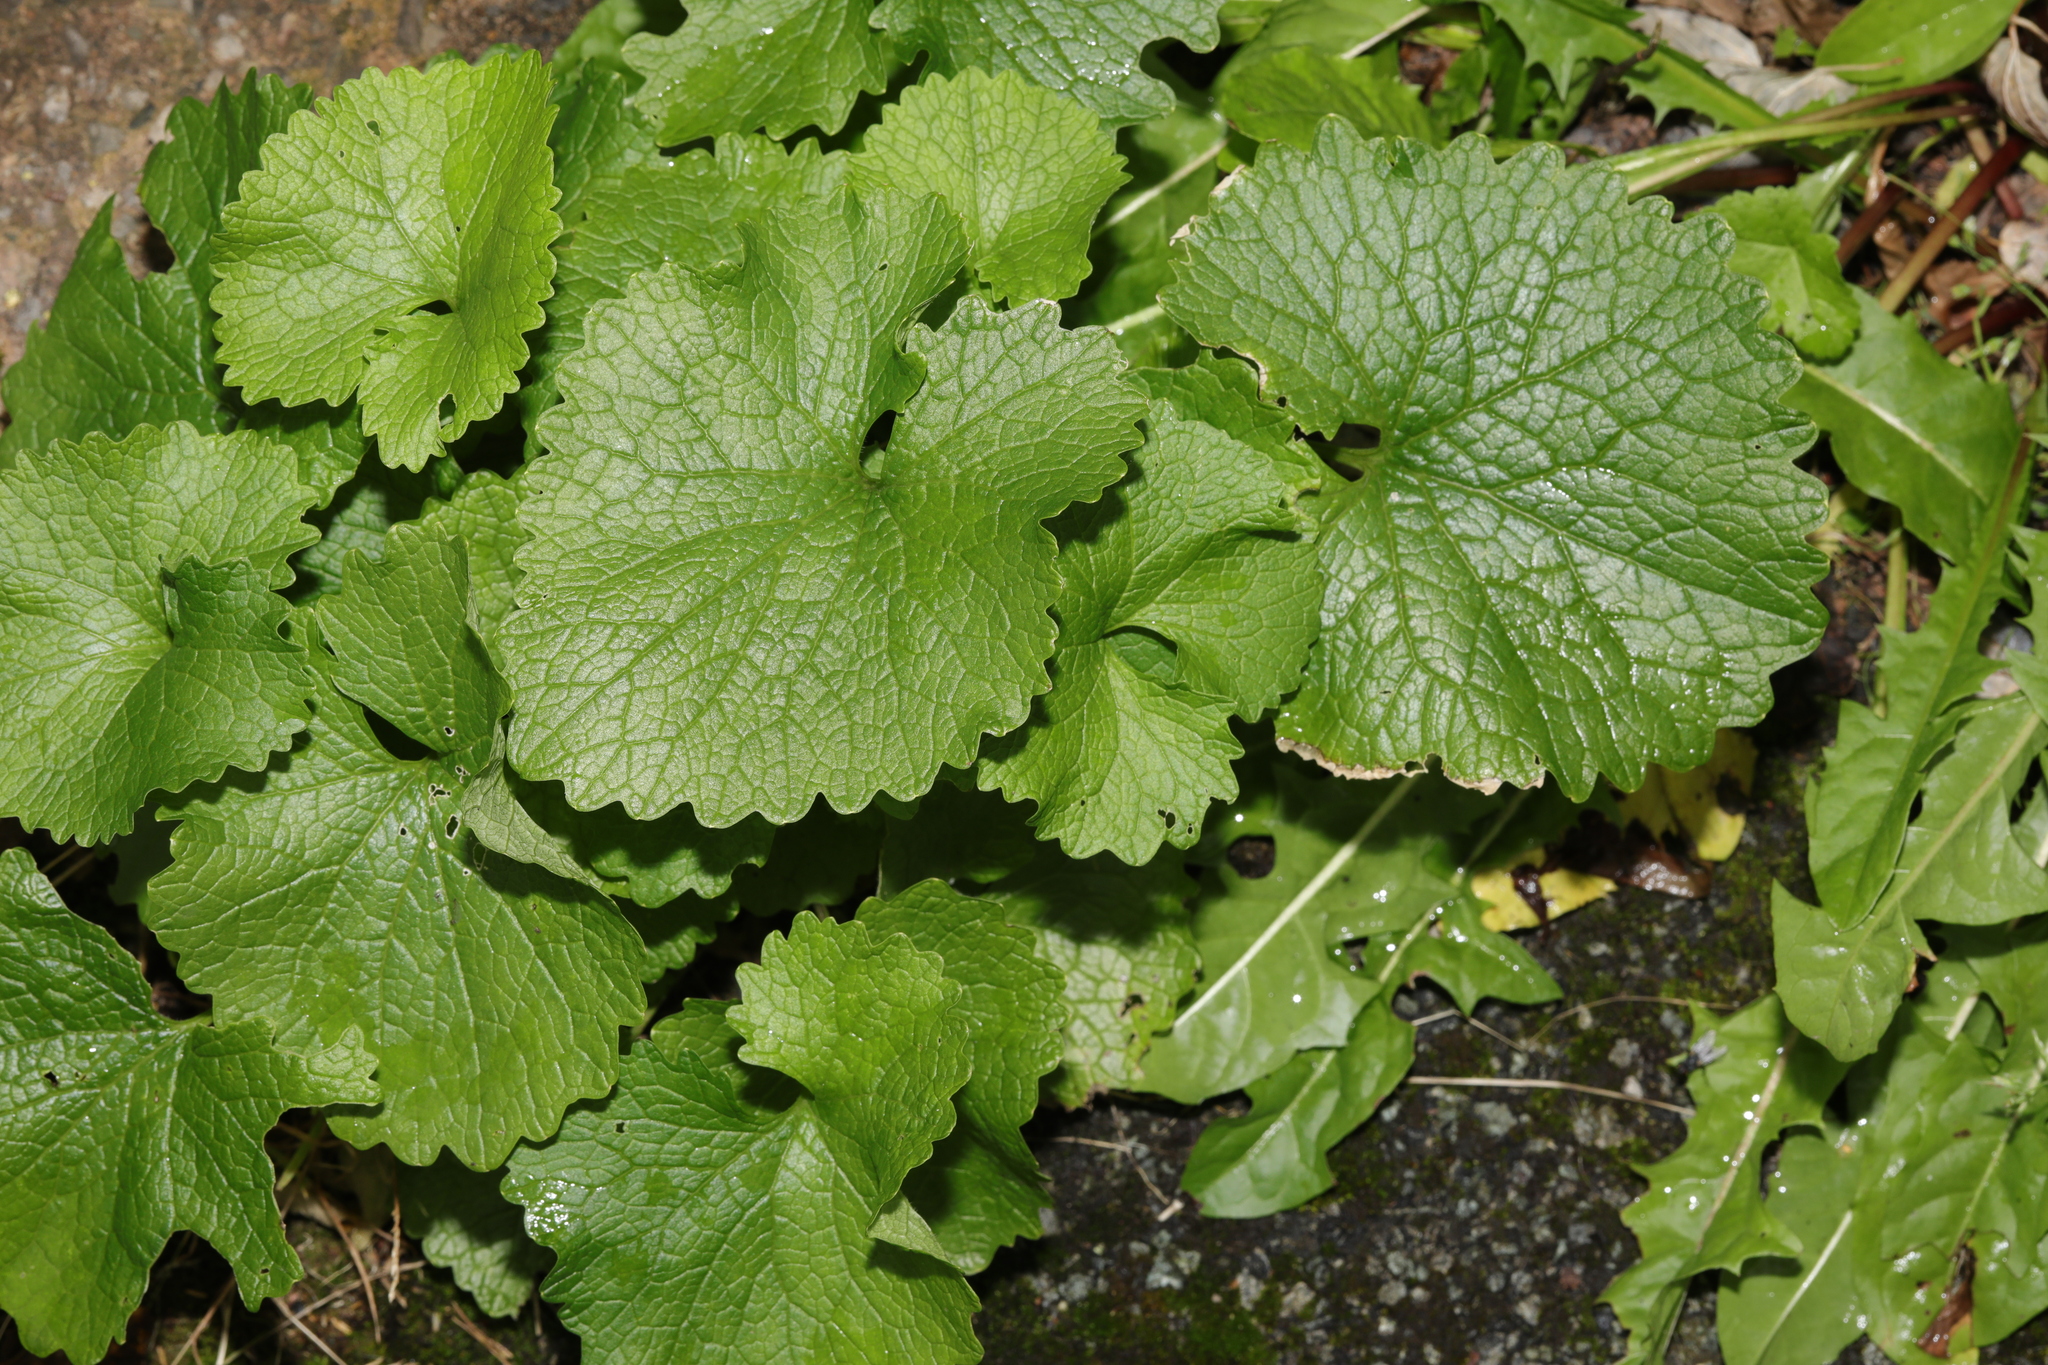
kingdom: Plantae
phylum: Tracheophyta
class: Magnoliopsida
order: Brassicales
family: Brassicaceae
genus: Alliaria
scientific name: Alliaria petiolata
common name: Garlic mustard
